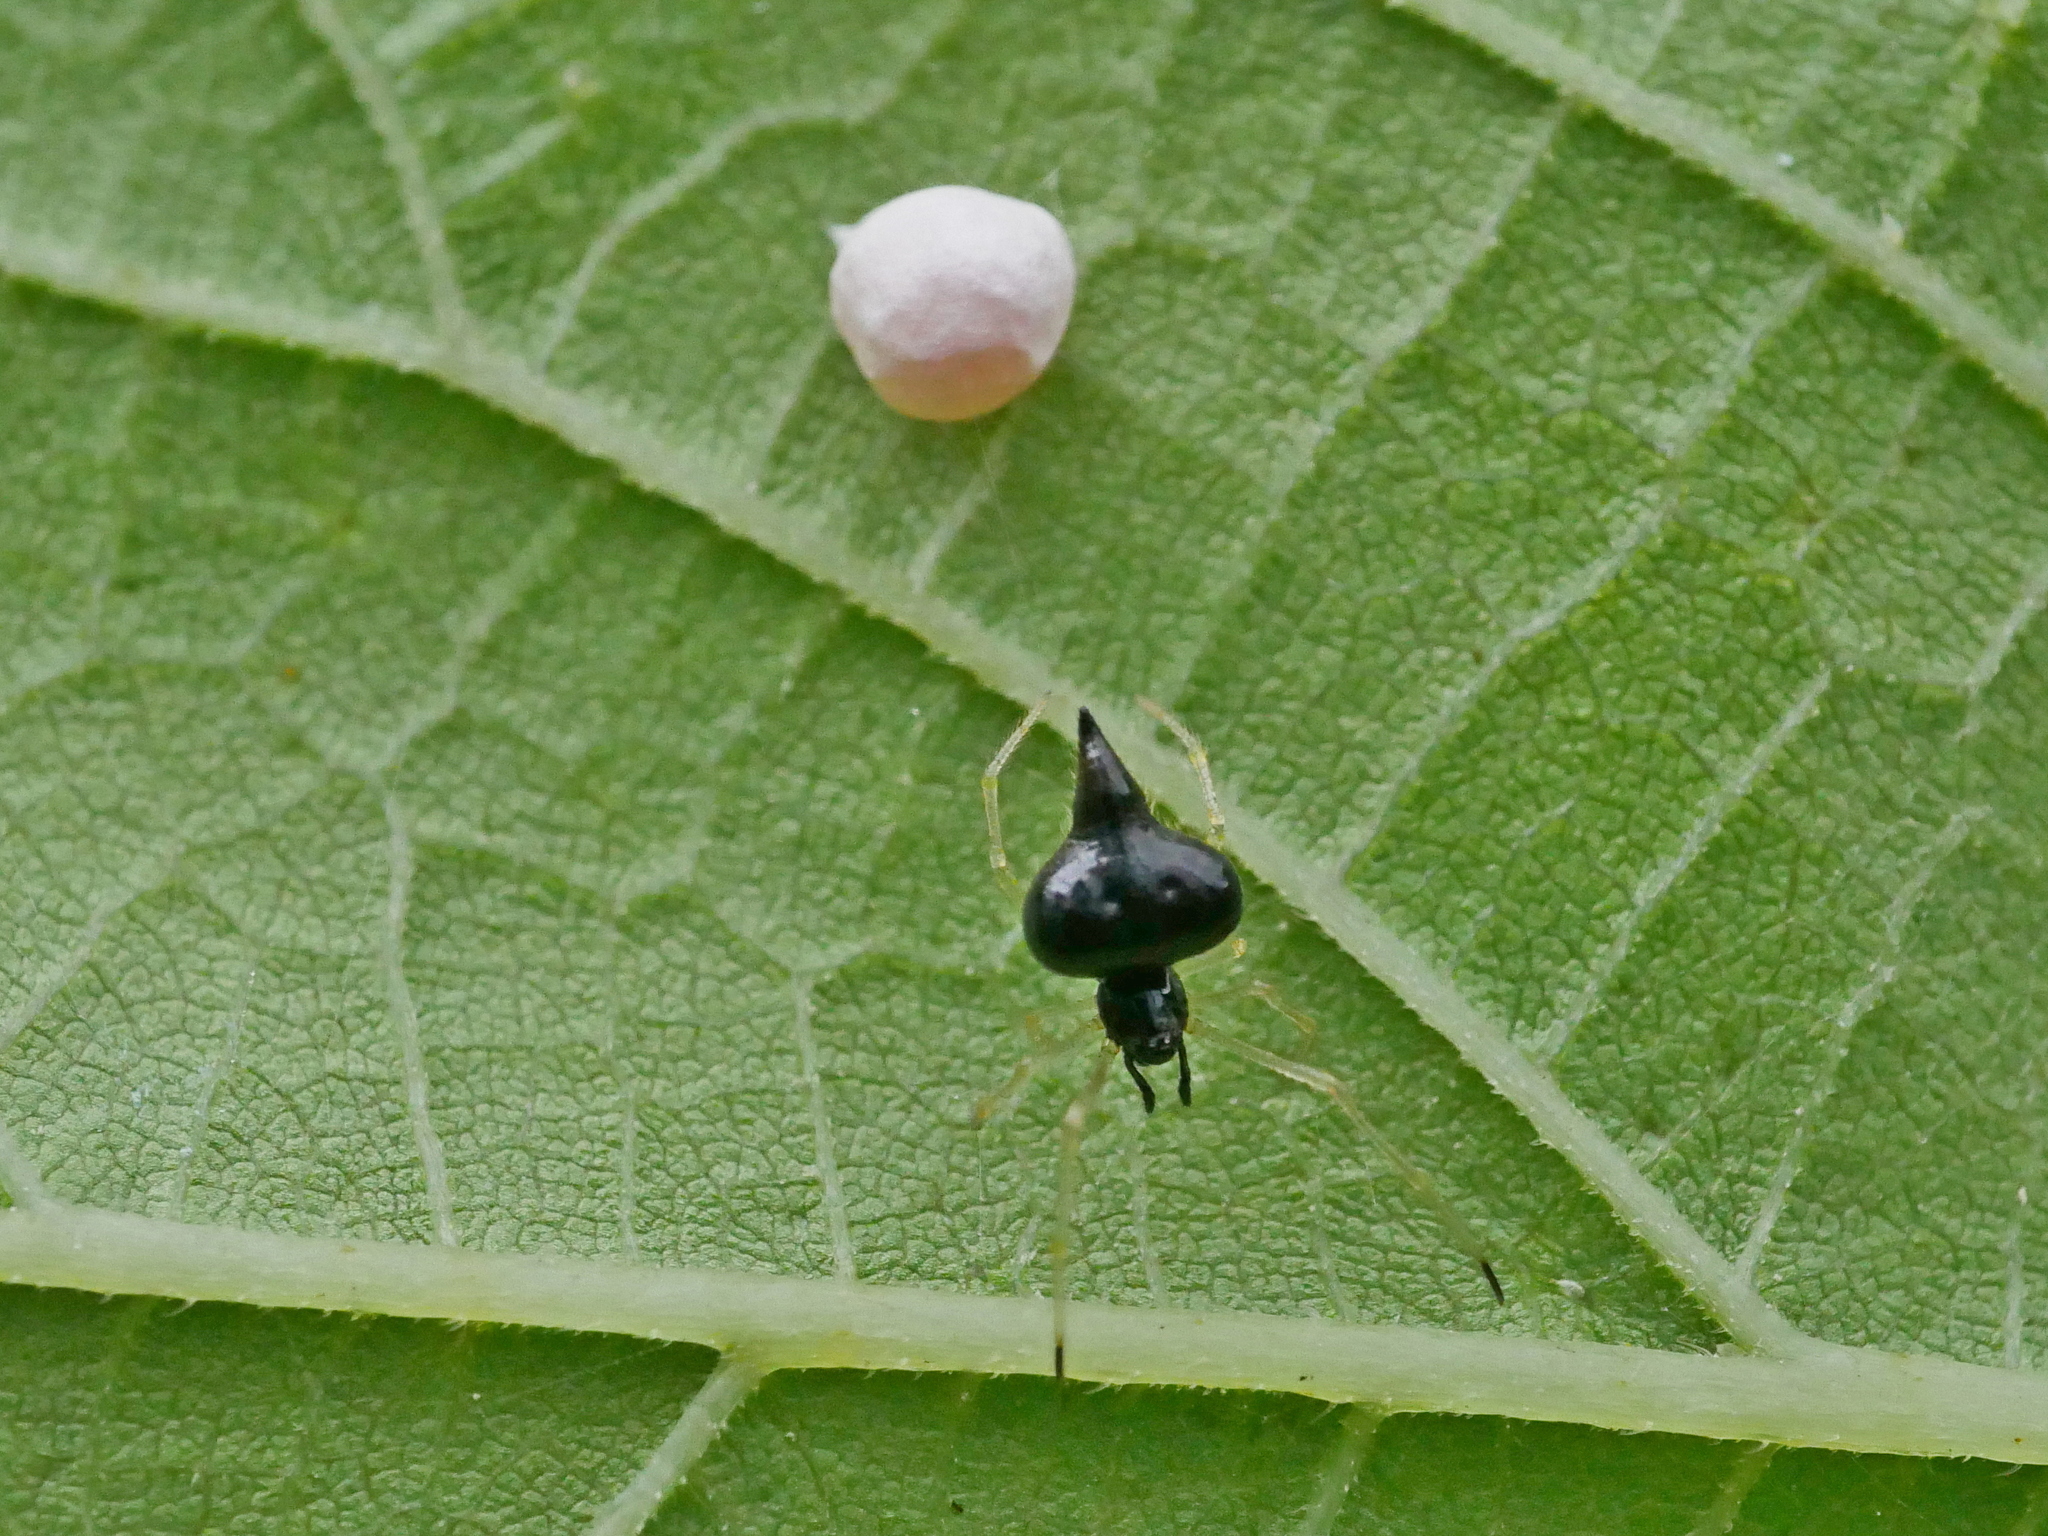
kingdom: Animalia
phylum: Arthropoda
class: Arachnida
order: Araneae
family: Theridiidae
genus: Chikunia
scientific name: Chikunia nigra
